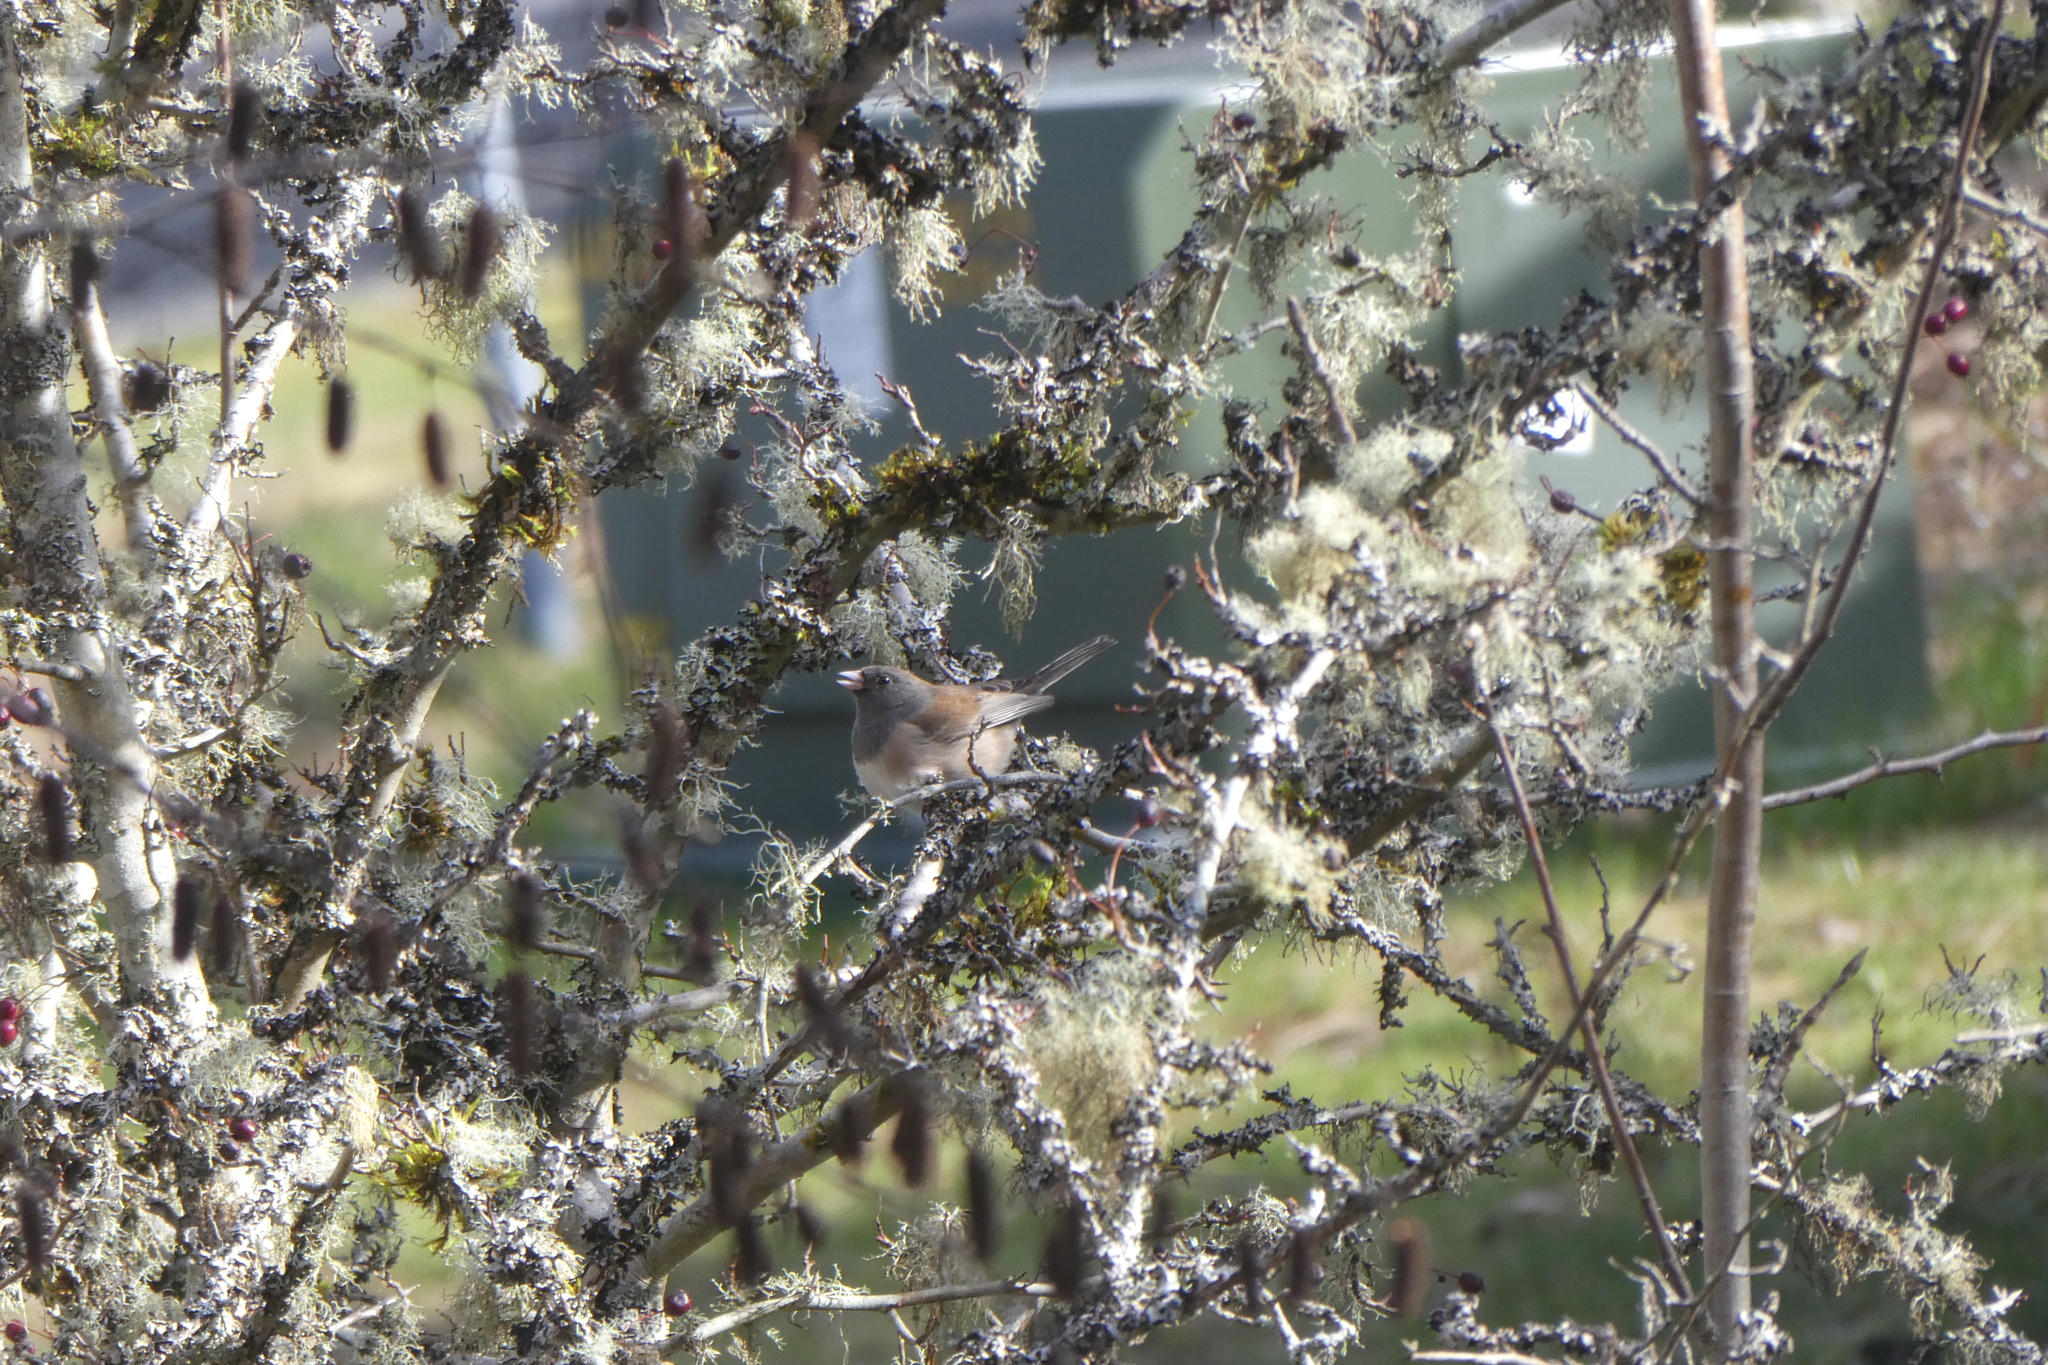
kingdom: Animalia
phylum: Chordata
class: Aves
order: Passeriformes
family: Passerellidae
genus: Junco
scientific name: Junco hyemalis
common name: Dark-eyed junco
